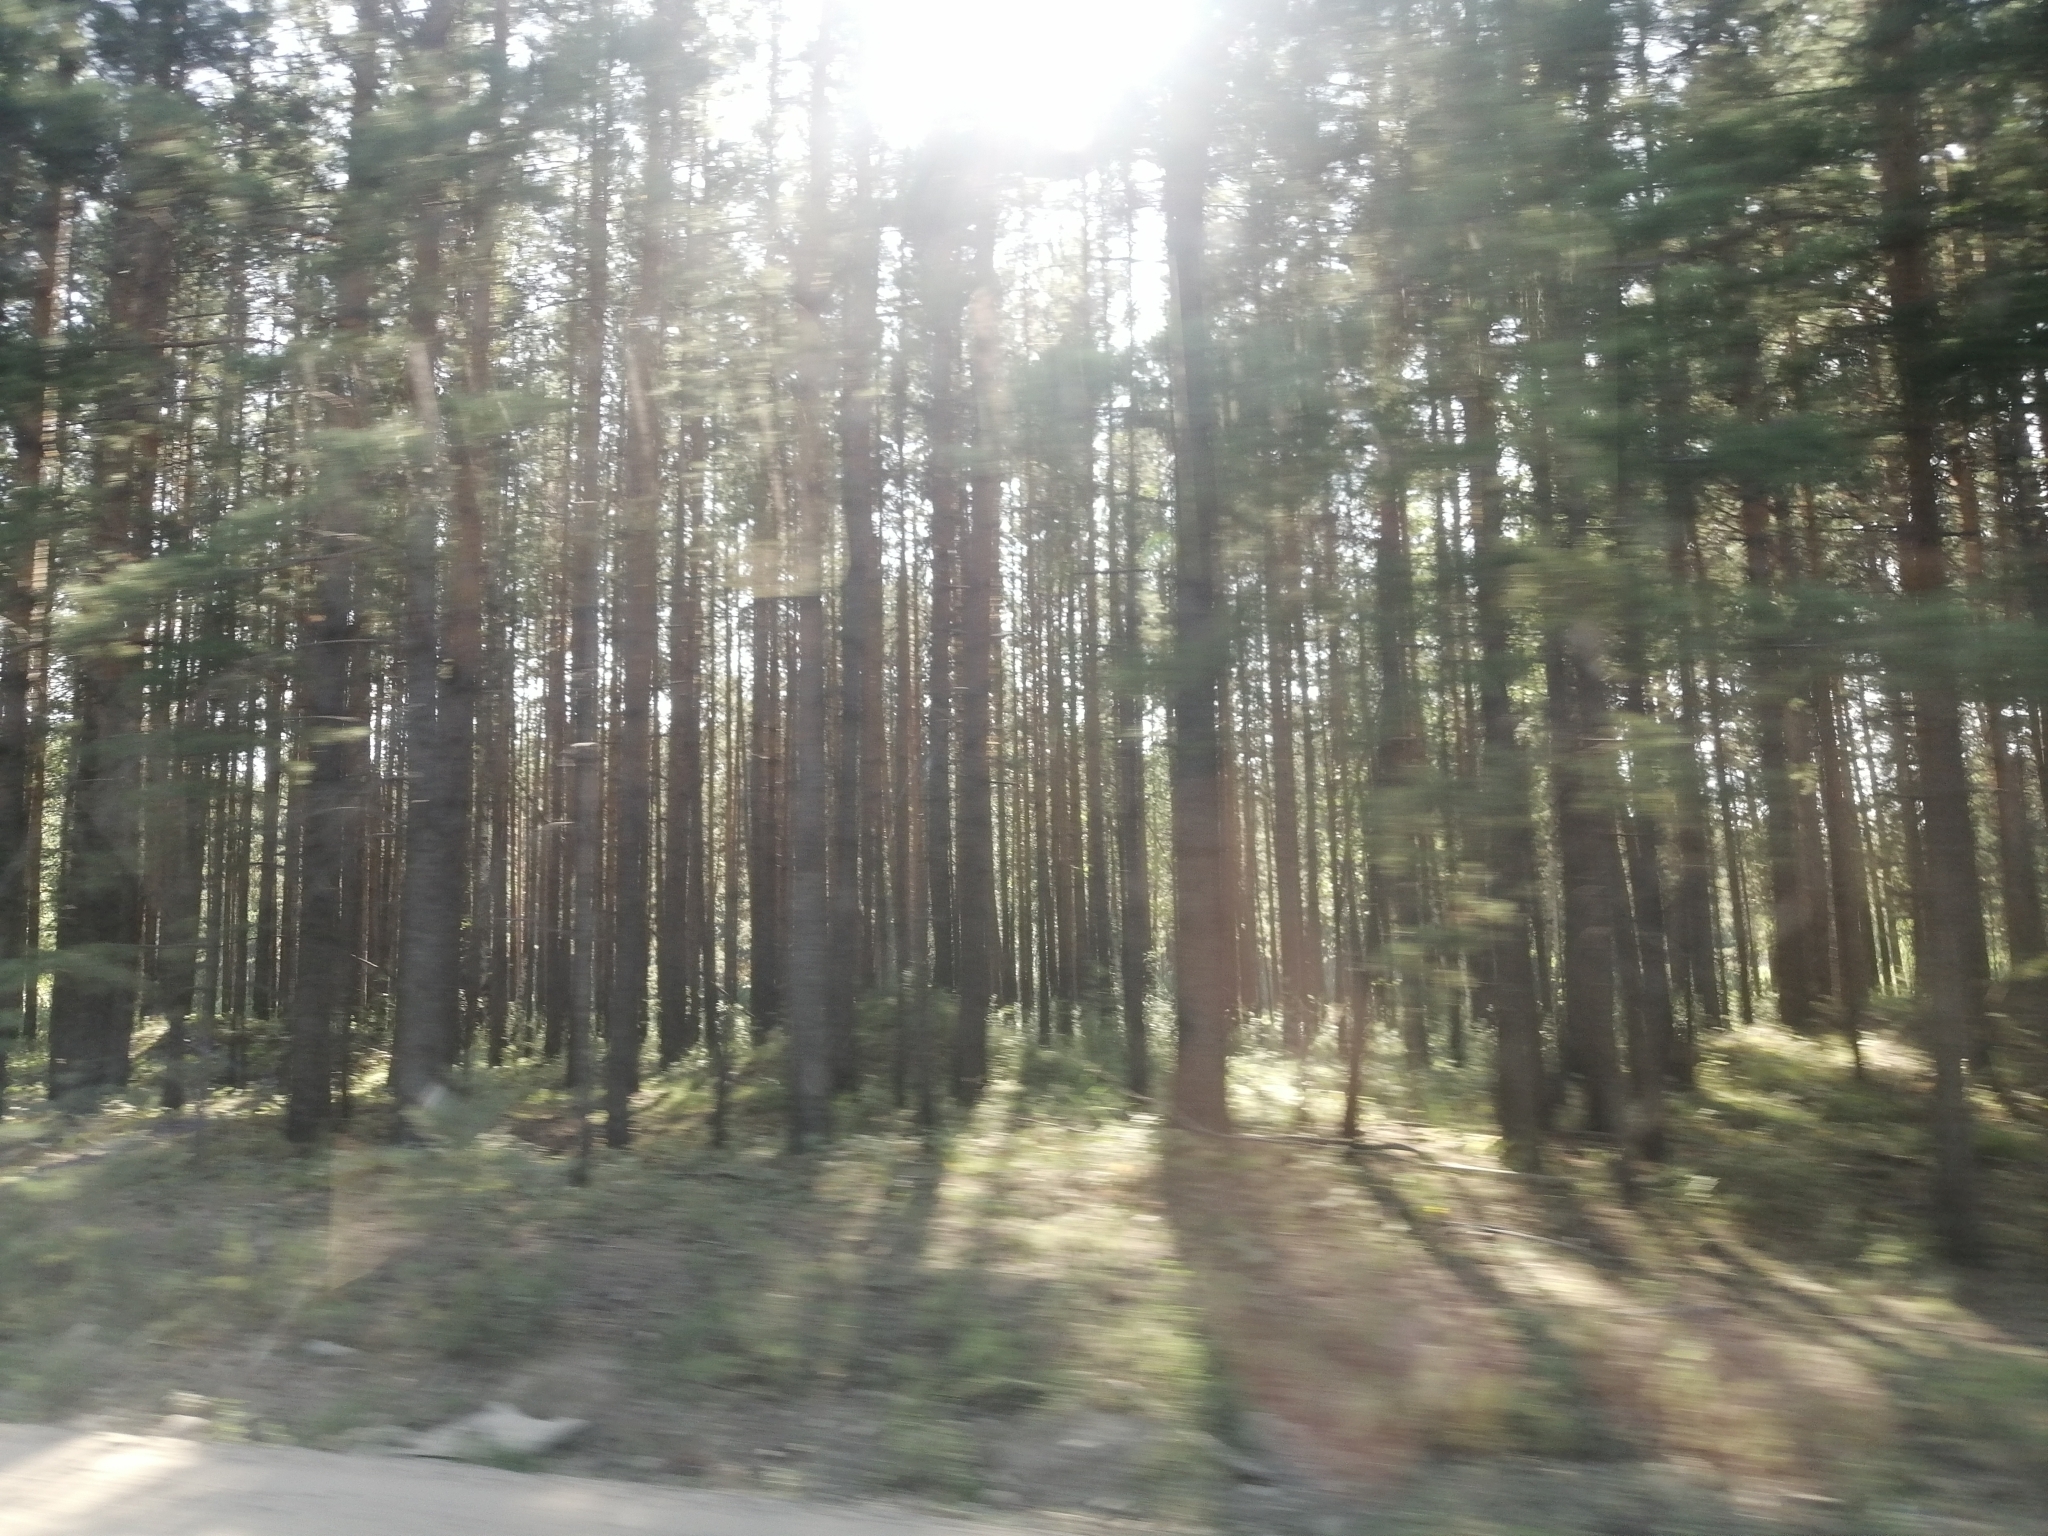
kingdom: Plantae
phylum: Tracheophyta
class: Pinopsida
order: Pinales
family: Pinaceae
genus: Pinus
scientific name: Pinus sylvestris
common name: Scots pine
